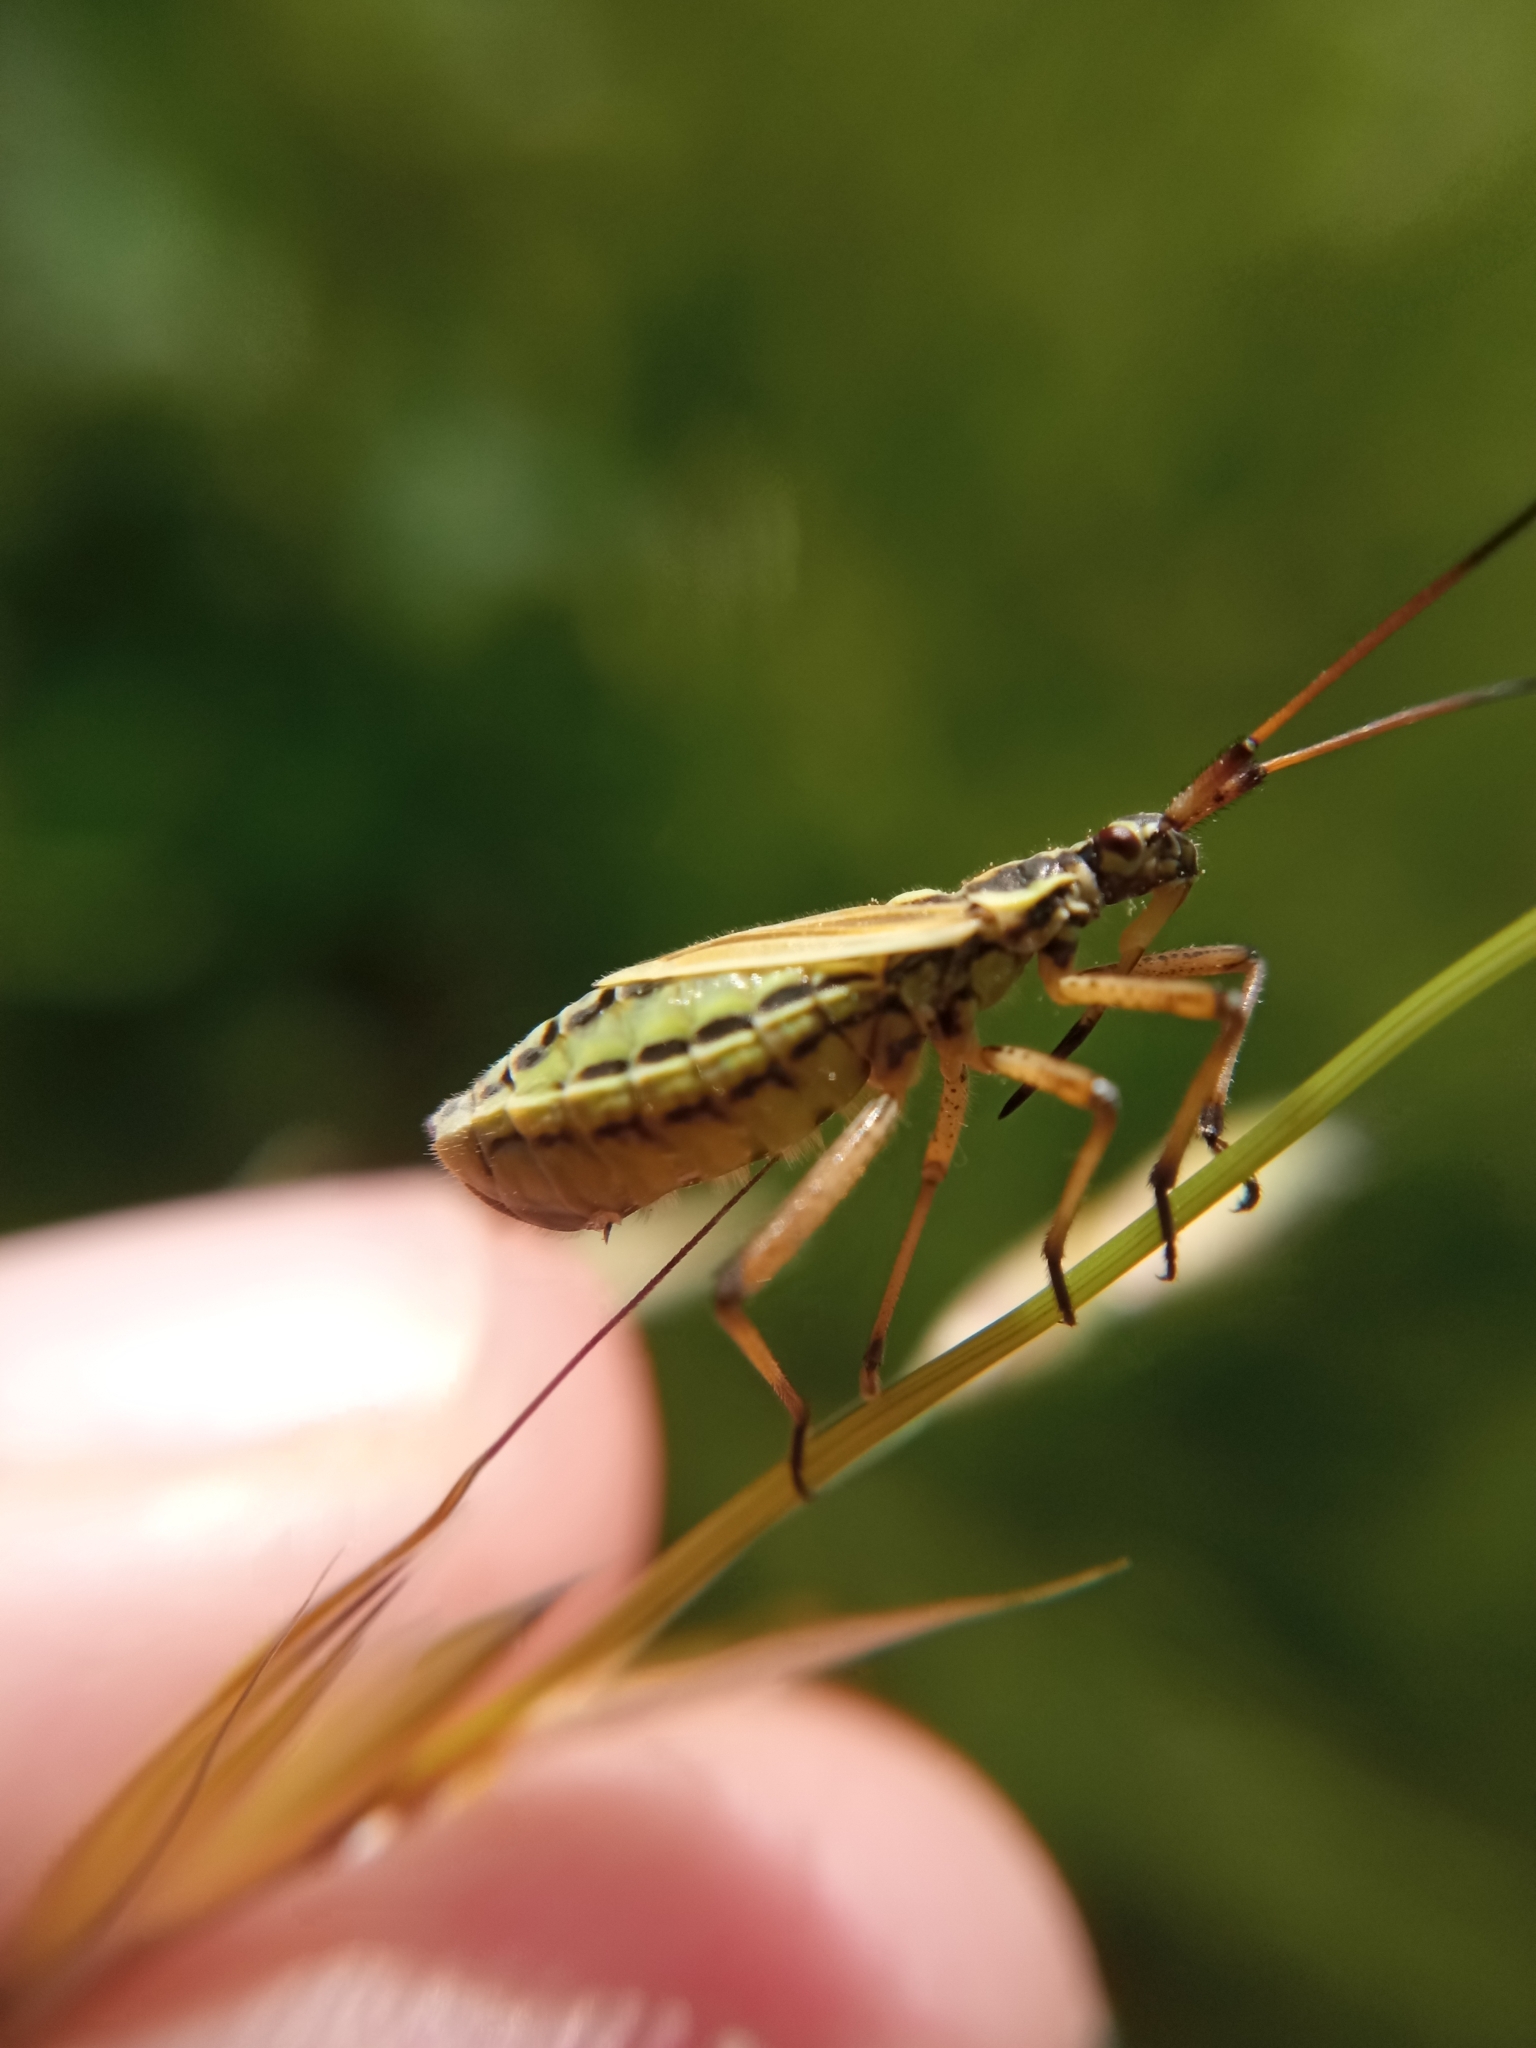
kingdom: Animalia
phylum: Arthropoda
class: Insecta
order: Hemiptera
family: Miridae
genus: Leptopterna
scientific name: Leptopterna dolabrata
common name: Meadow plant bug
